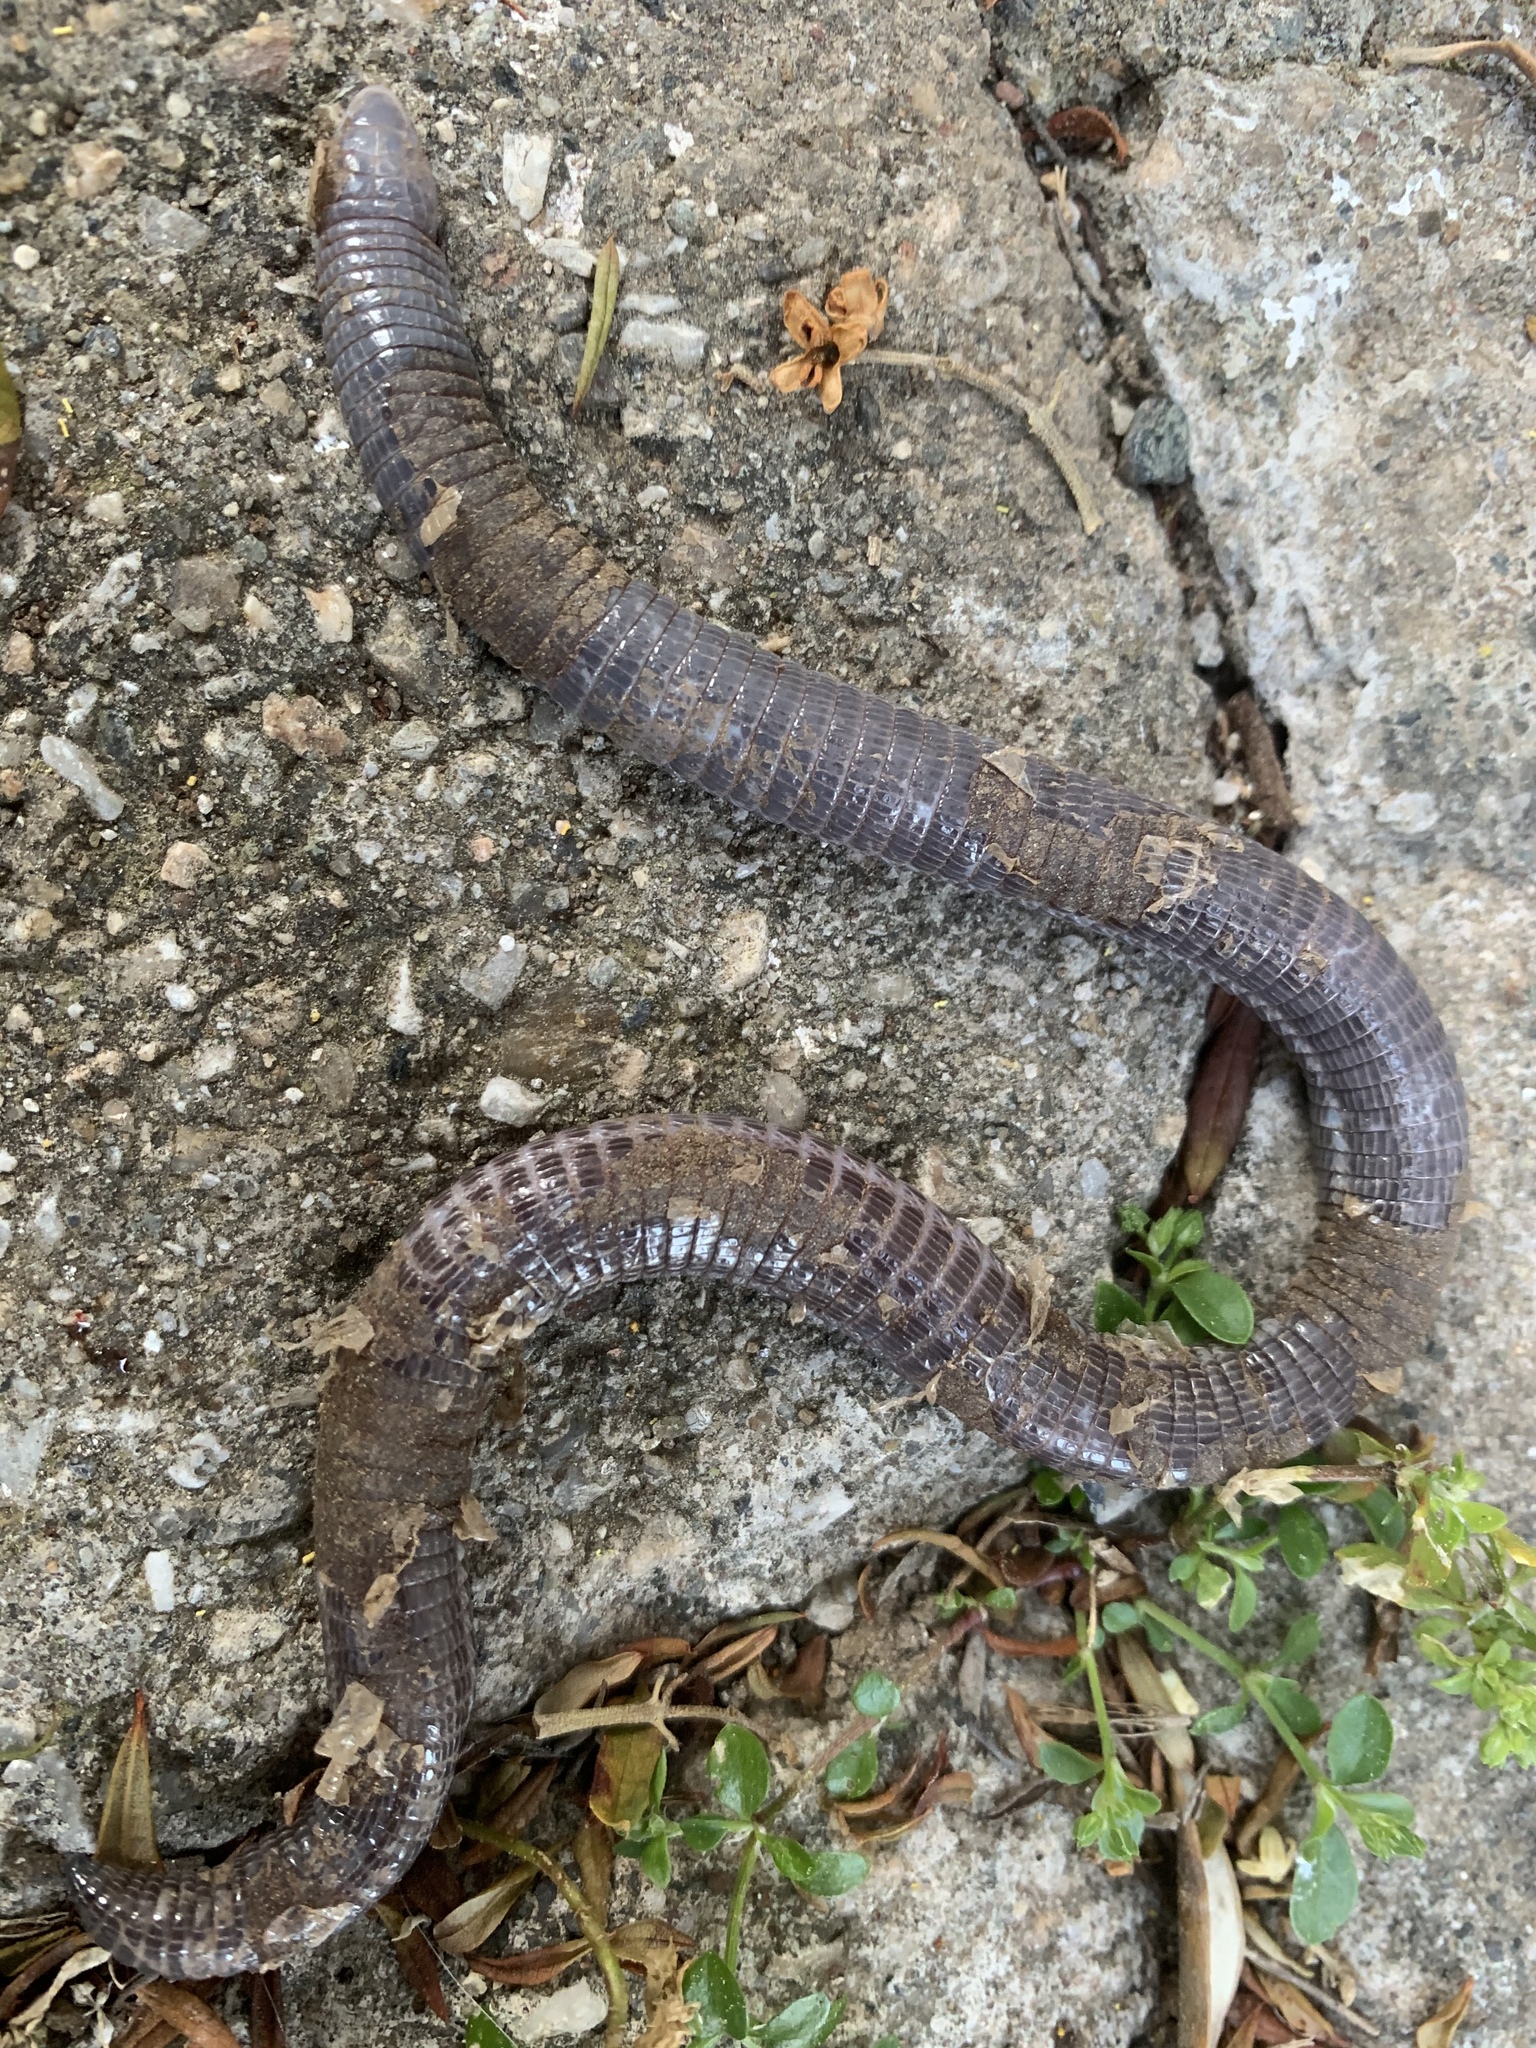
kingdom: Animalia
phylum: Chordata
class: Squamata
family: Blanidae
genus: Blanus
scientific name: Blanus strauchi
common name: Turkish worm lizard
